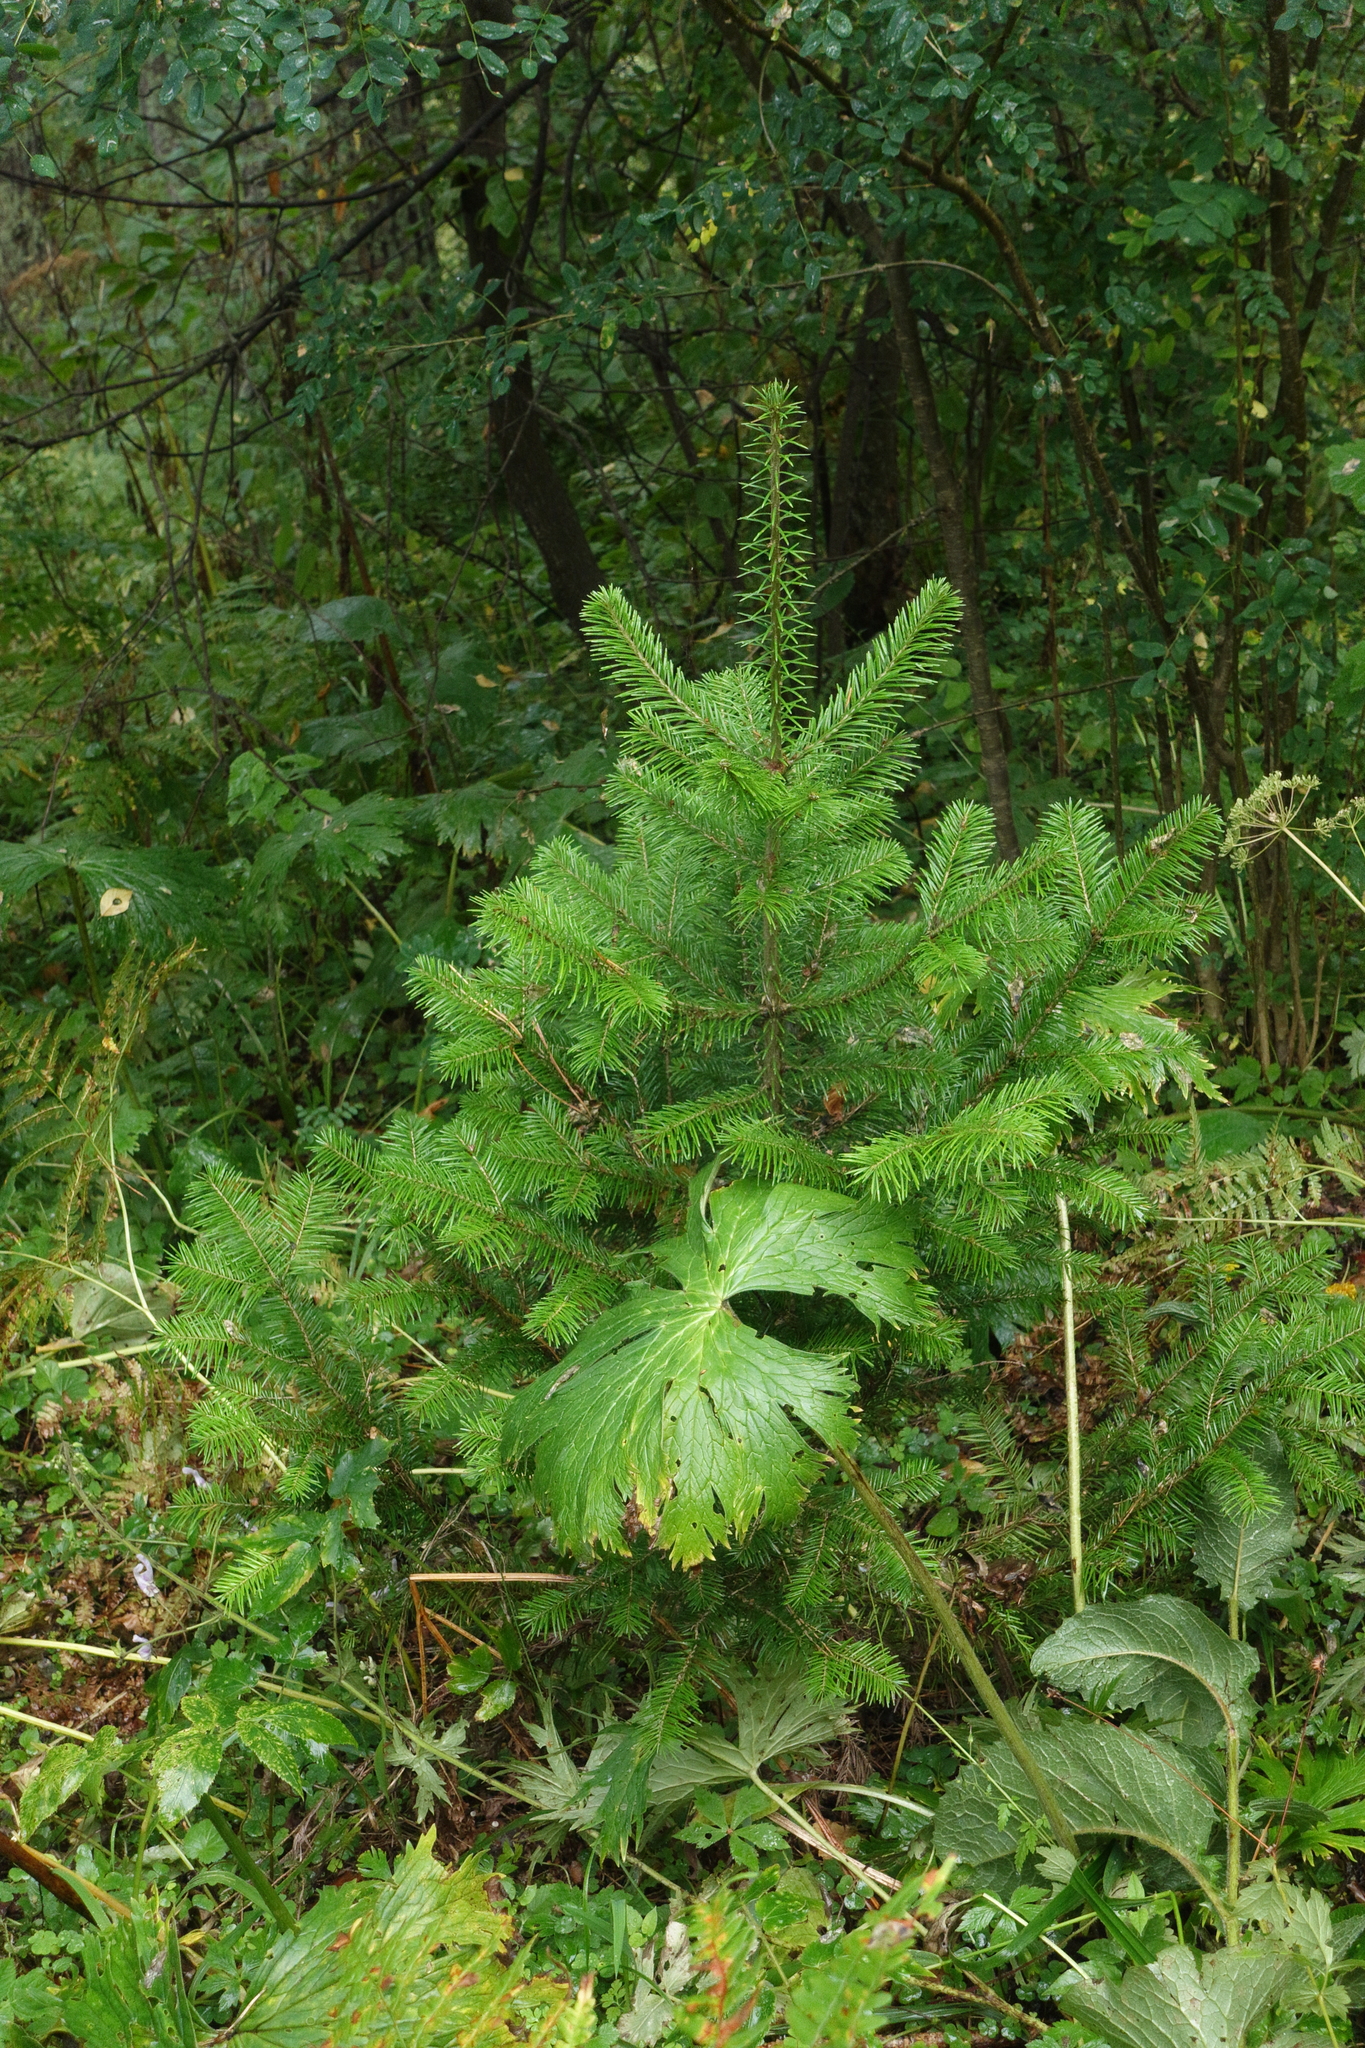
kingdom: Plantae
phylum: Tracheophyta
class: Magnoliopsida
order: Ranunculales
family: Ranunculaceae
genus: Aconitum
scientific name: Aconitum septentrionale
